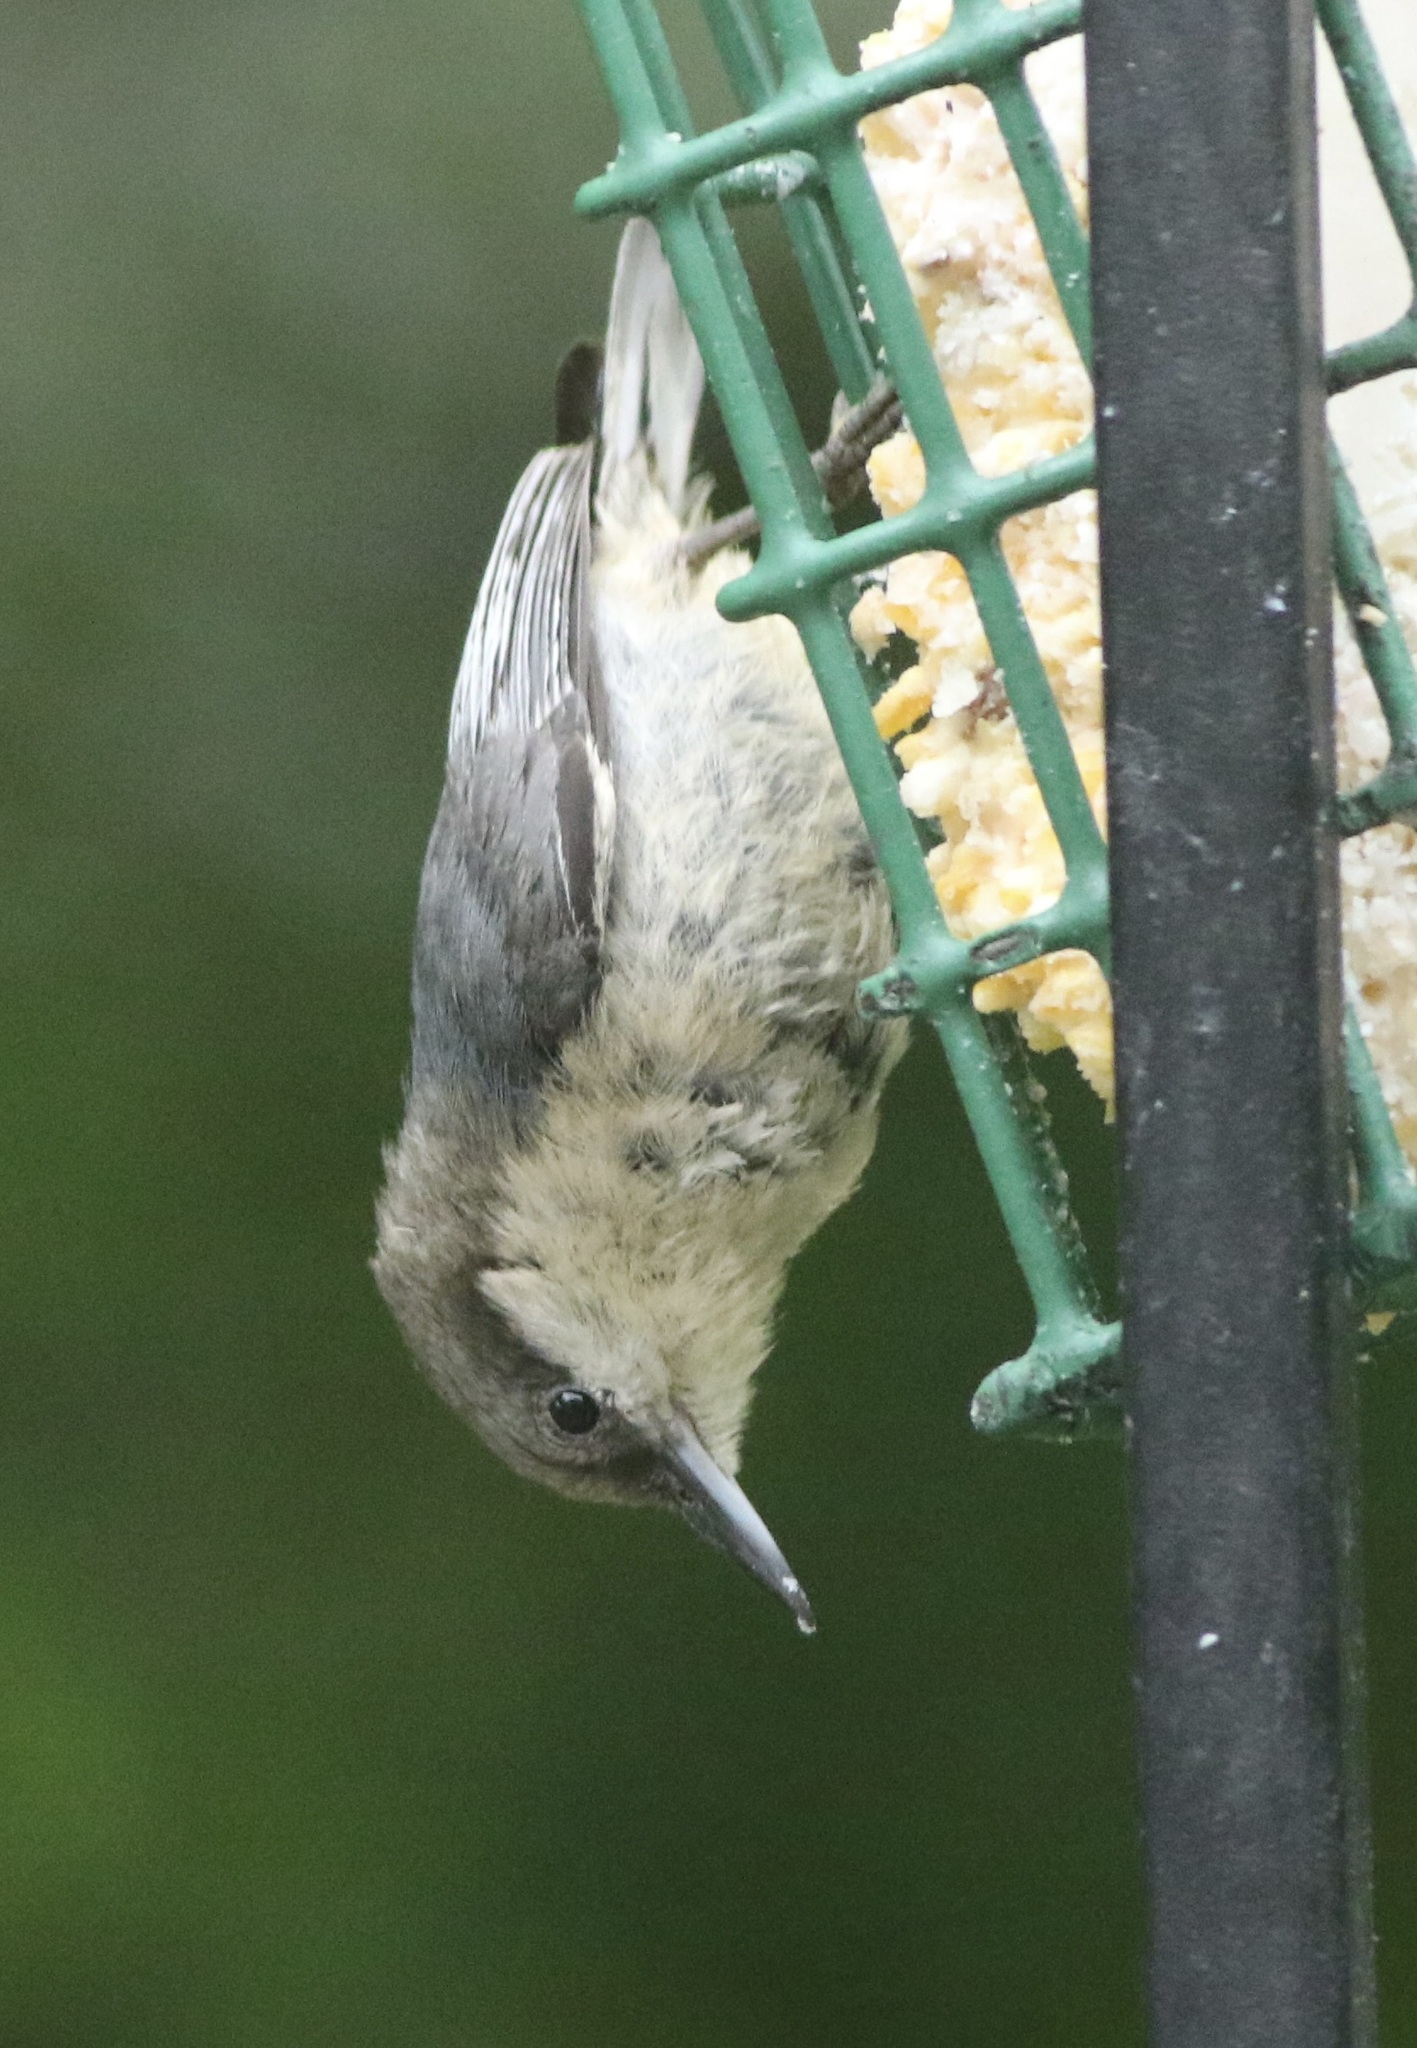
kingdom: Animalia
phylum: Chordata
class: Aves
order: Passeriformes
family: Sittidae
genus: Sitta
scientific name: Sitta pygmaea
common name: Pygmy nuthatch
